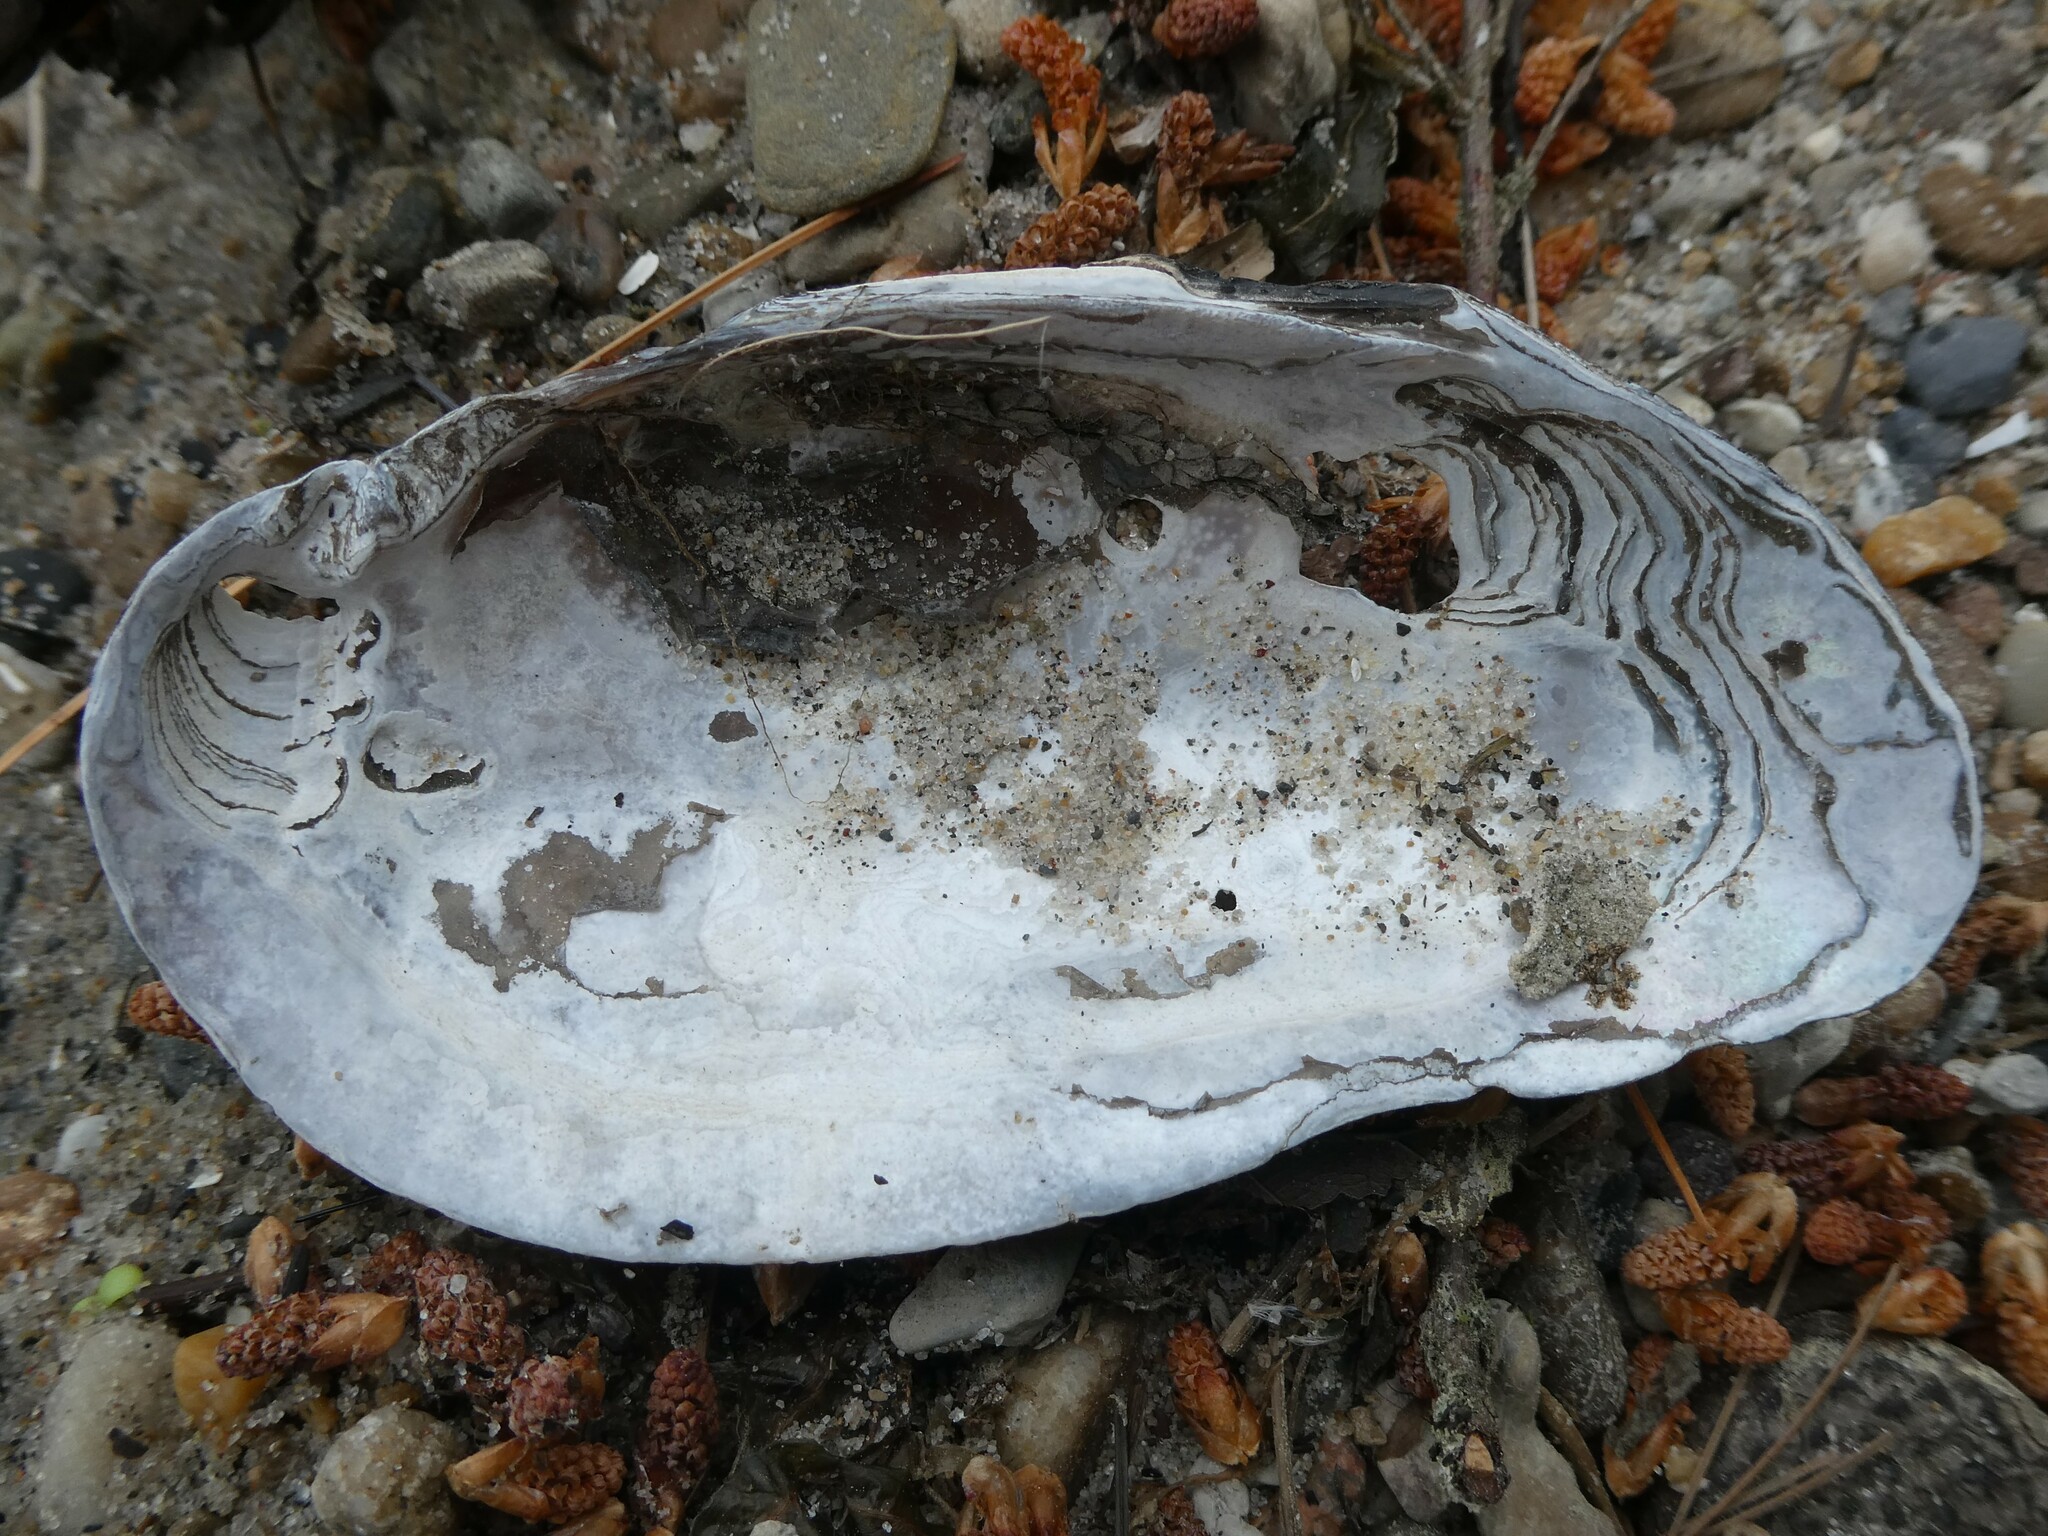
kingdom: Animalia
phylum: Mollusca
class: Bivalvia
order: Unionida
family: Unionidae
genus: Elliptio
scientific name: Elliptio complanata
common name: Eastern elliptio
